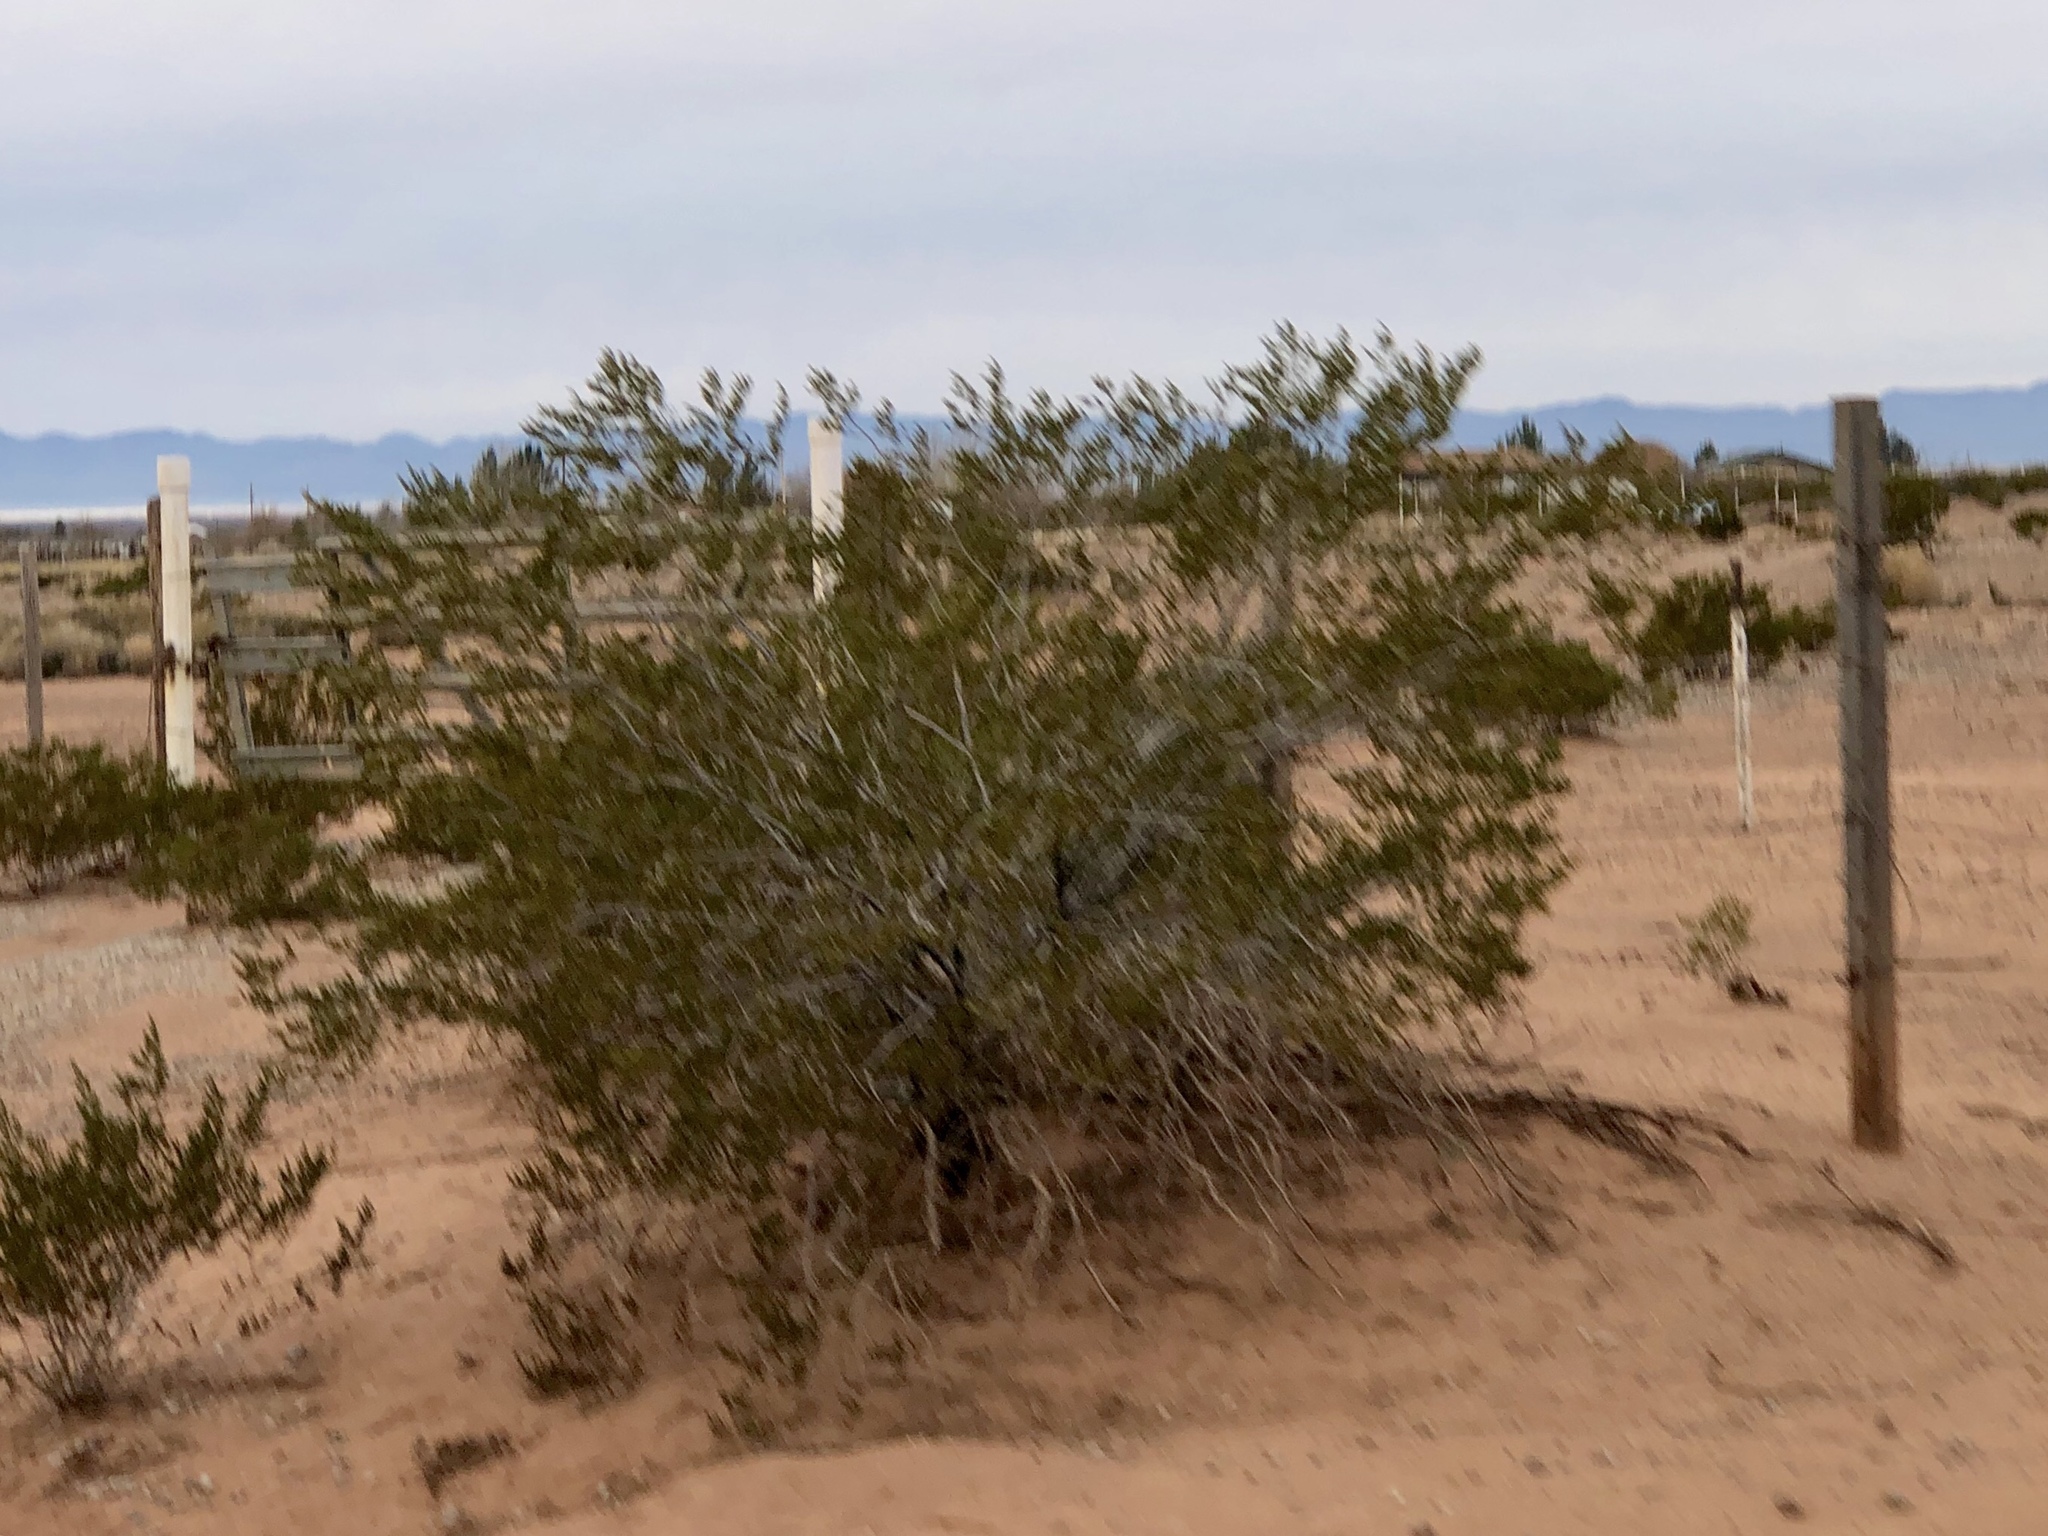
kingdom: Plantae
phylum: Tracheophyta
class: Magnoliopsida
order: Zygophyllales
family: Zygophyllaceae
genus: Larrea
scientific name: Larrea tridentata
